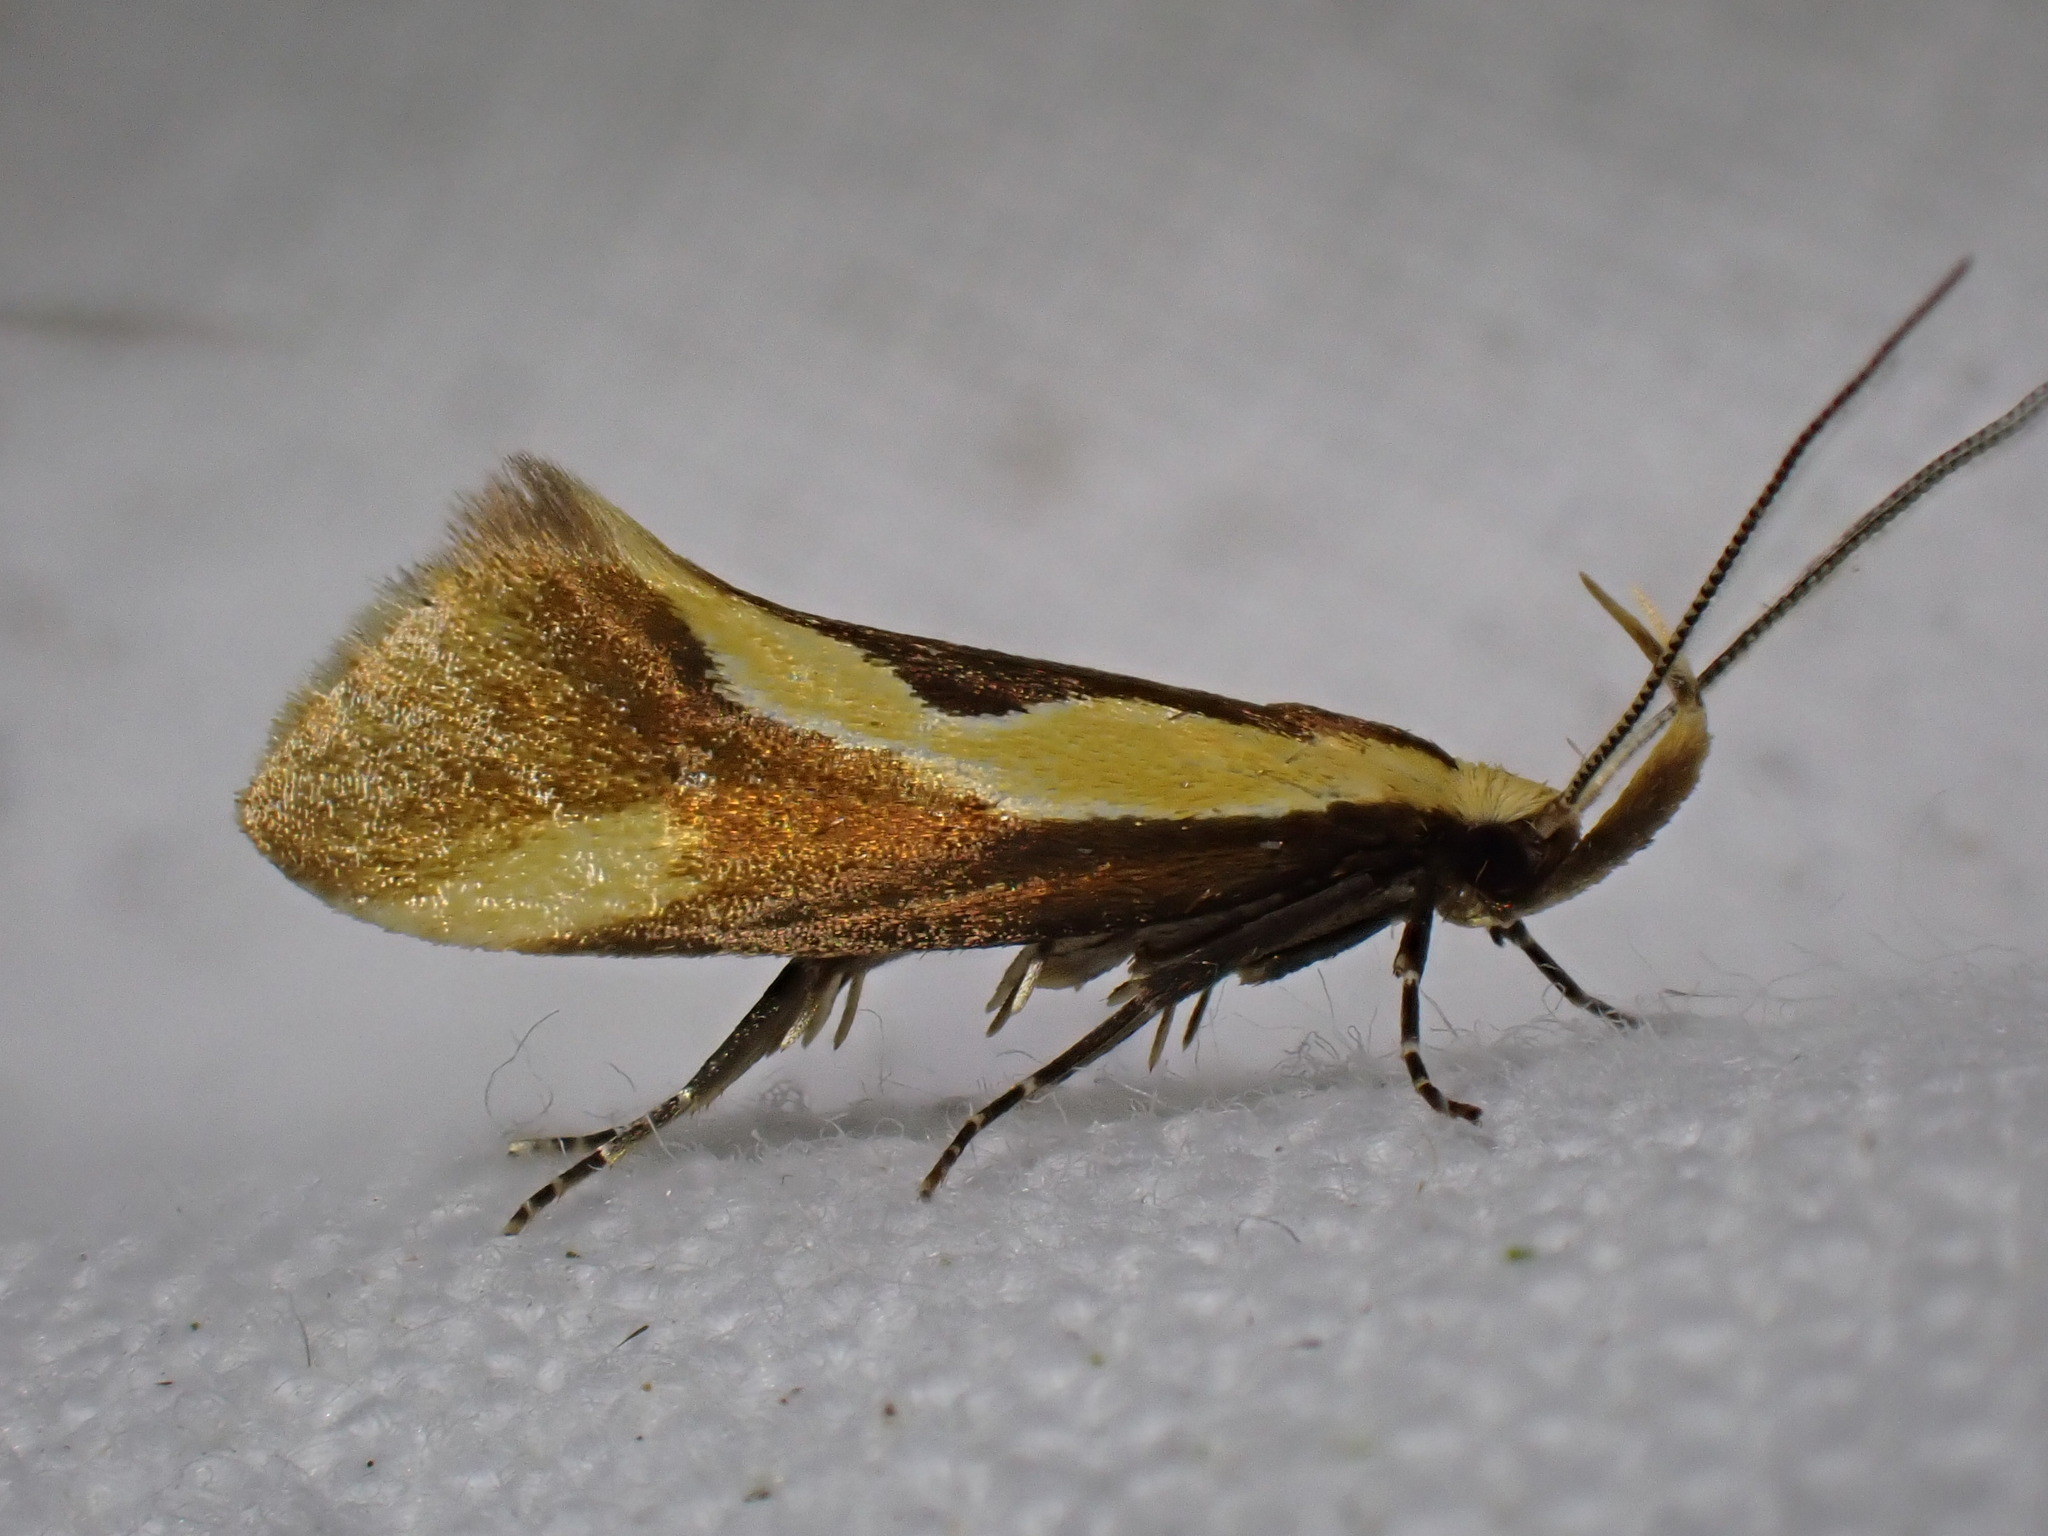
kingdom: Animalia
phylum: Arthropoda
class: Insecta
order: Lepidoptera
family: Oecophoridae
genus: Harpella
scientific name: Harpella forficella
